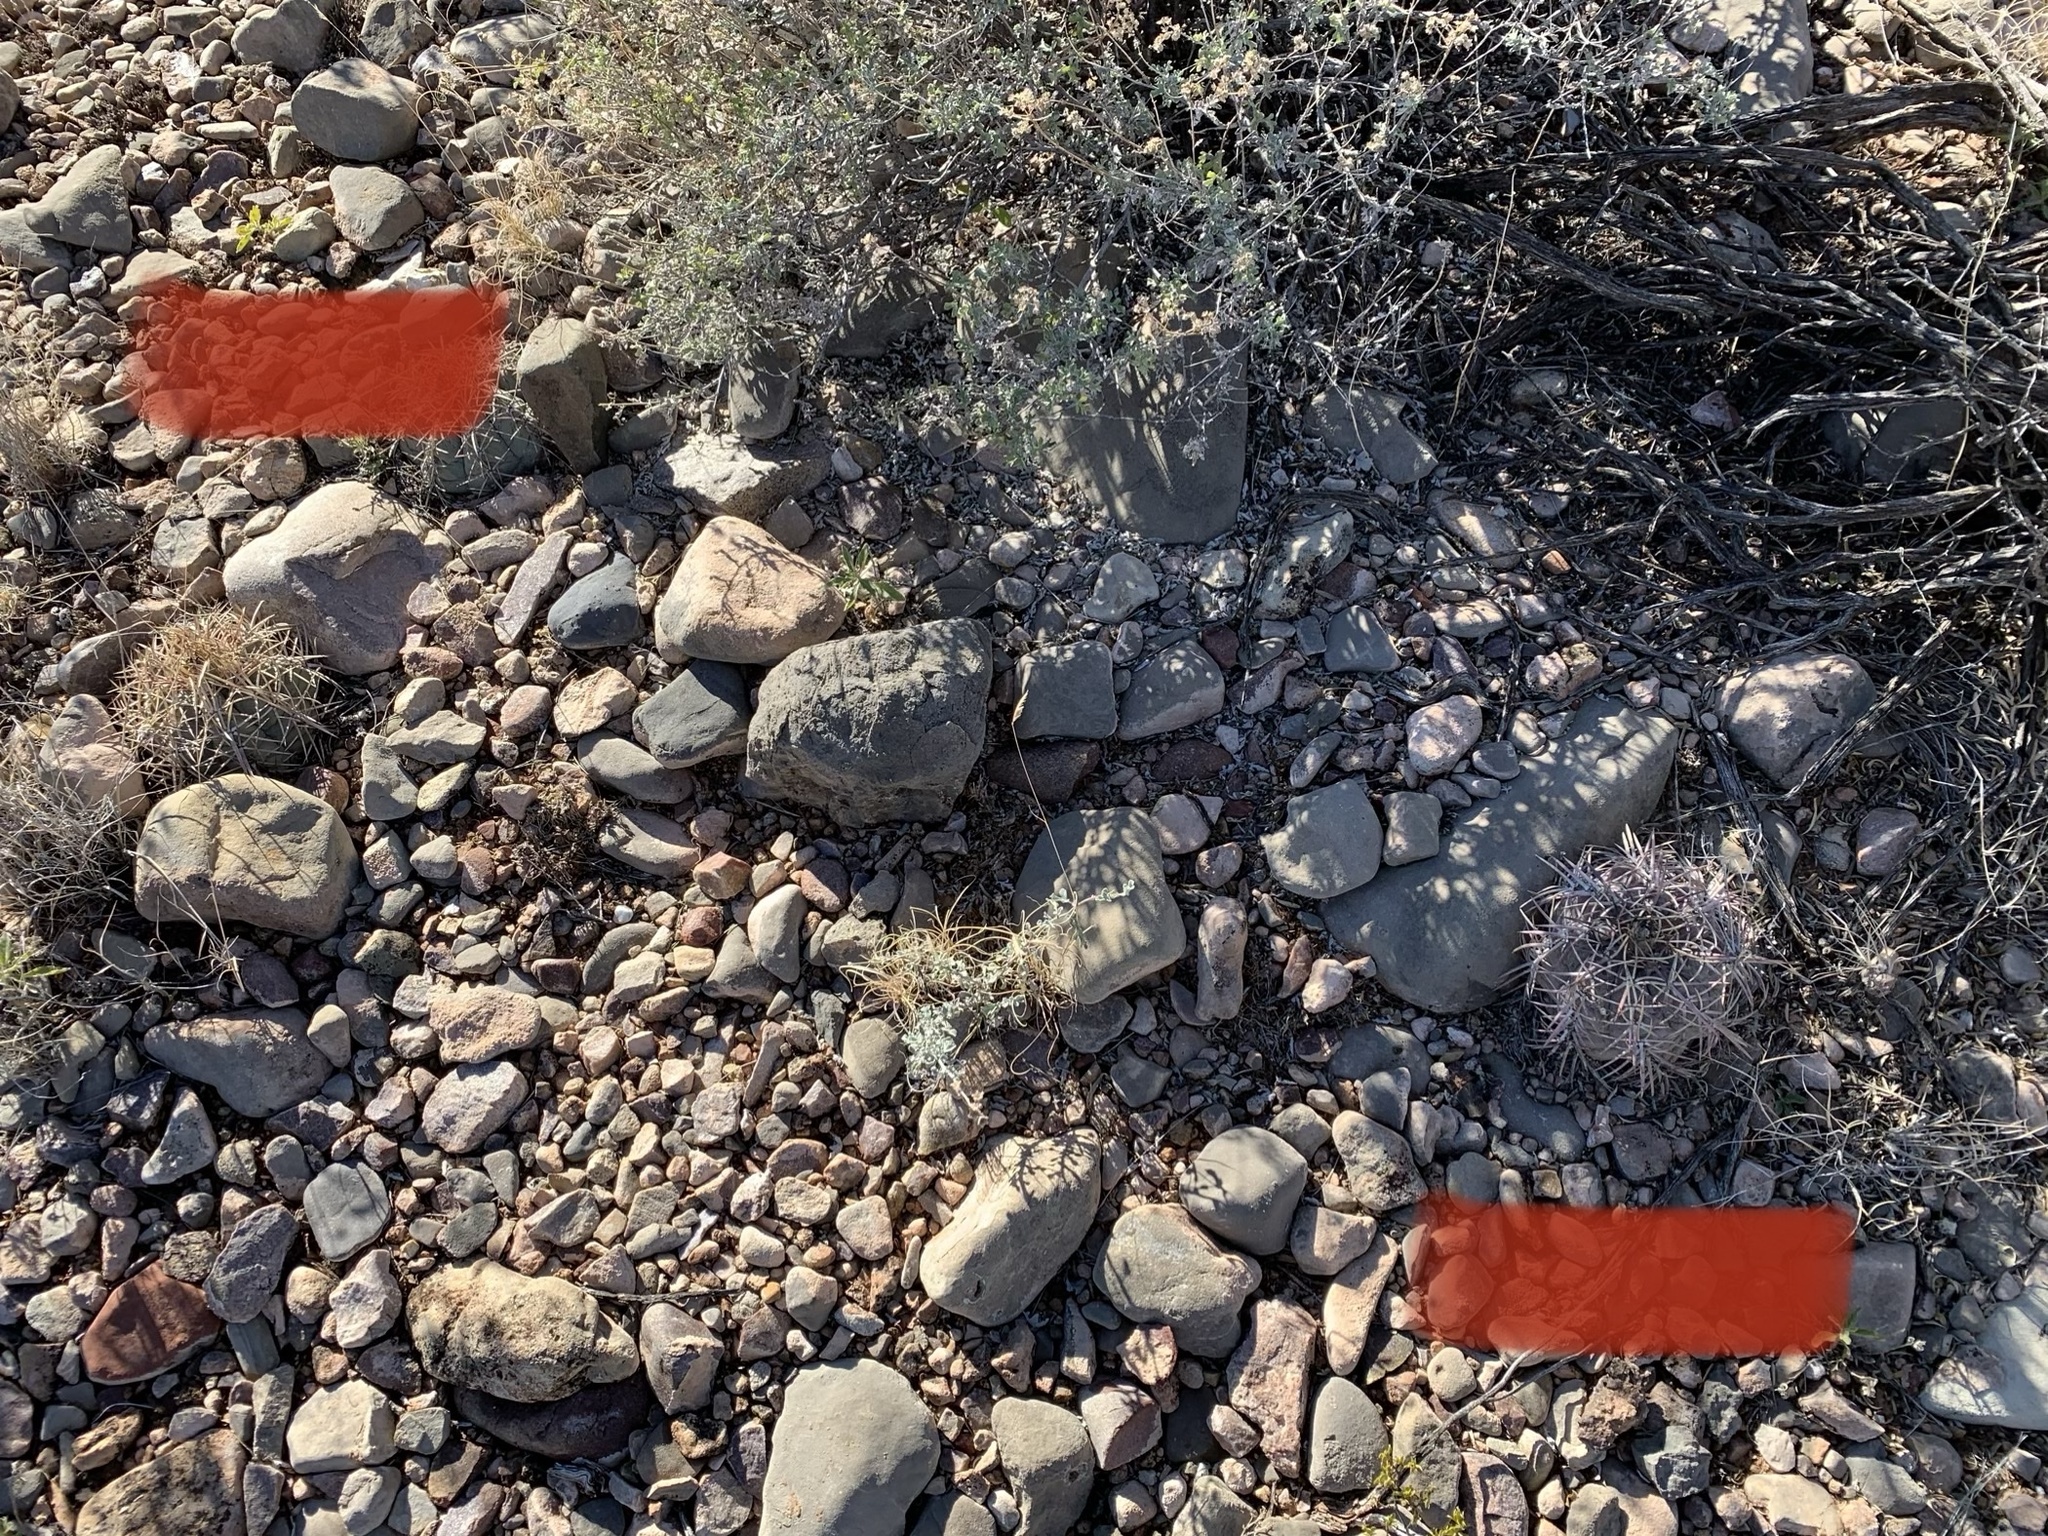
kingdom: Plantae
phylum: Tracheophyta
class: Magnoliopsida
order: Caryophyllales
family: Cactaceae
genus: Echinocactus
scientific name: Echinocactus horizonthalonius
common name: Devilshead
